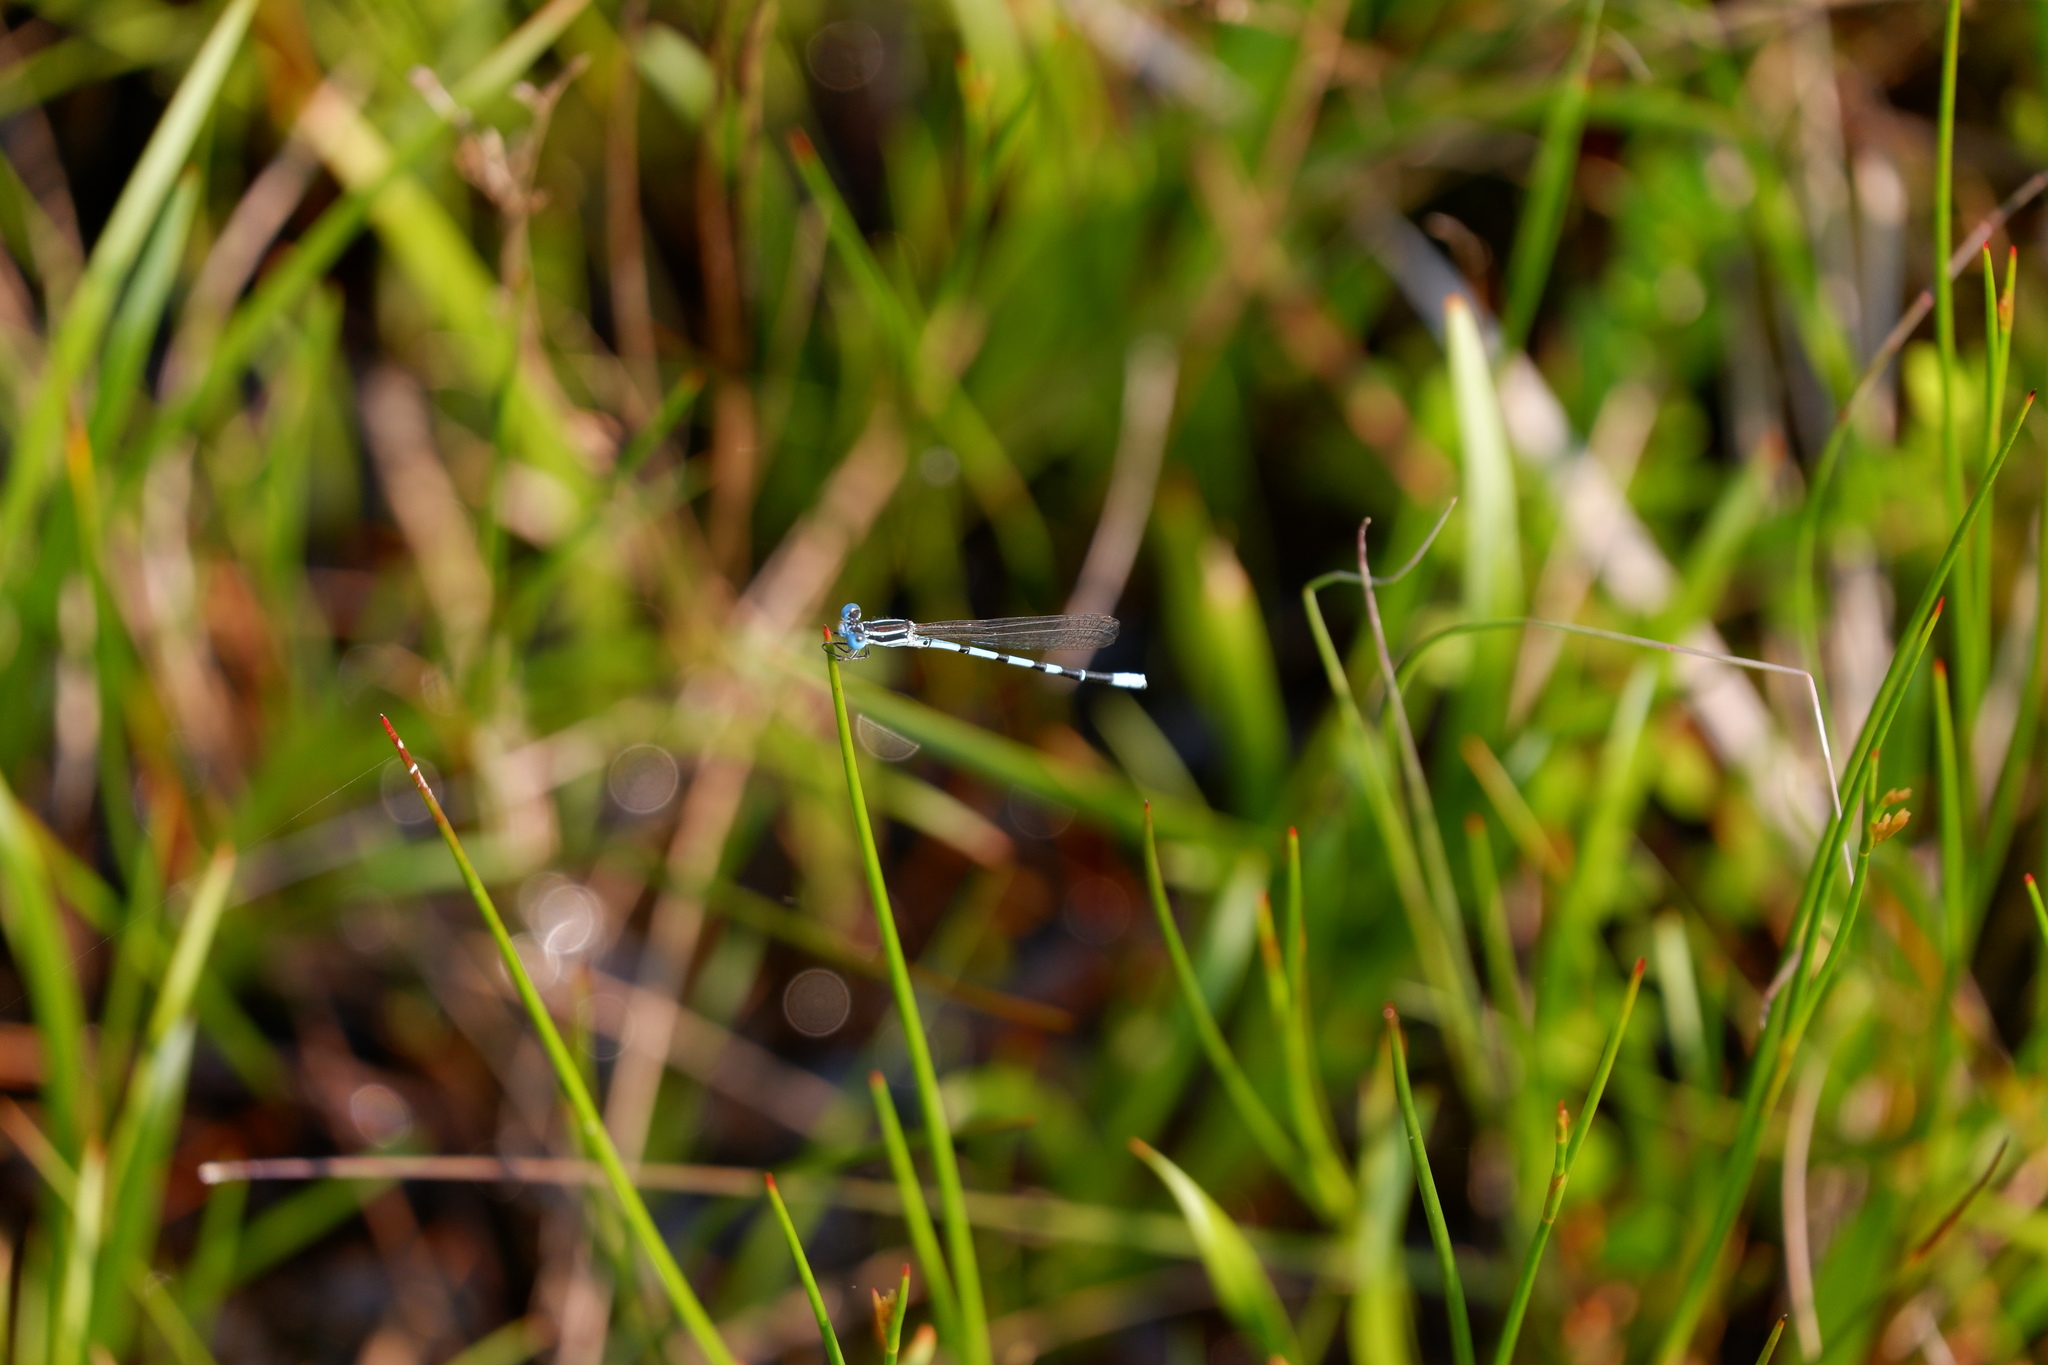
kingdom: Animalia
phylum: Arthropoda
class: Insecta
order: Odonata
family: Coenagrionidae
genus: Argia
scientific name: Argia bipunctulata
